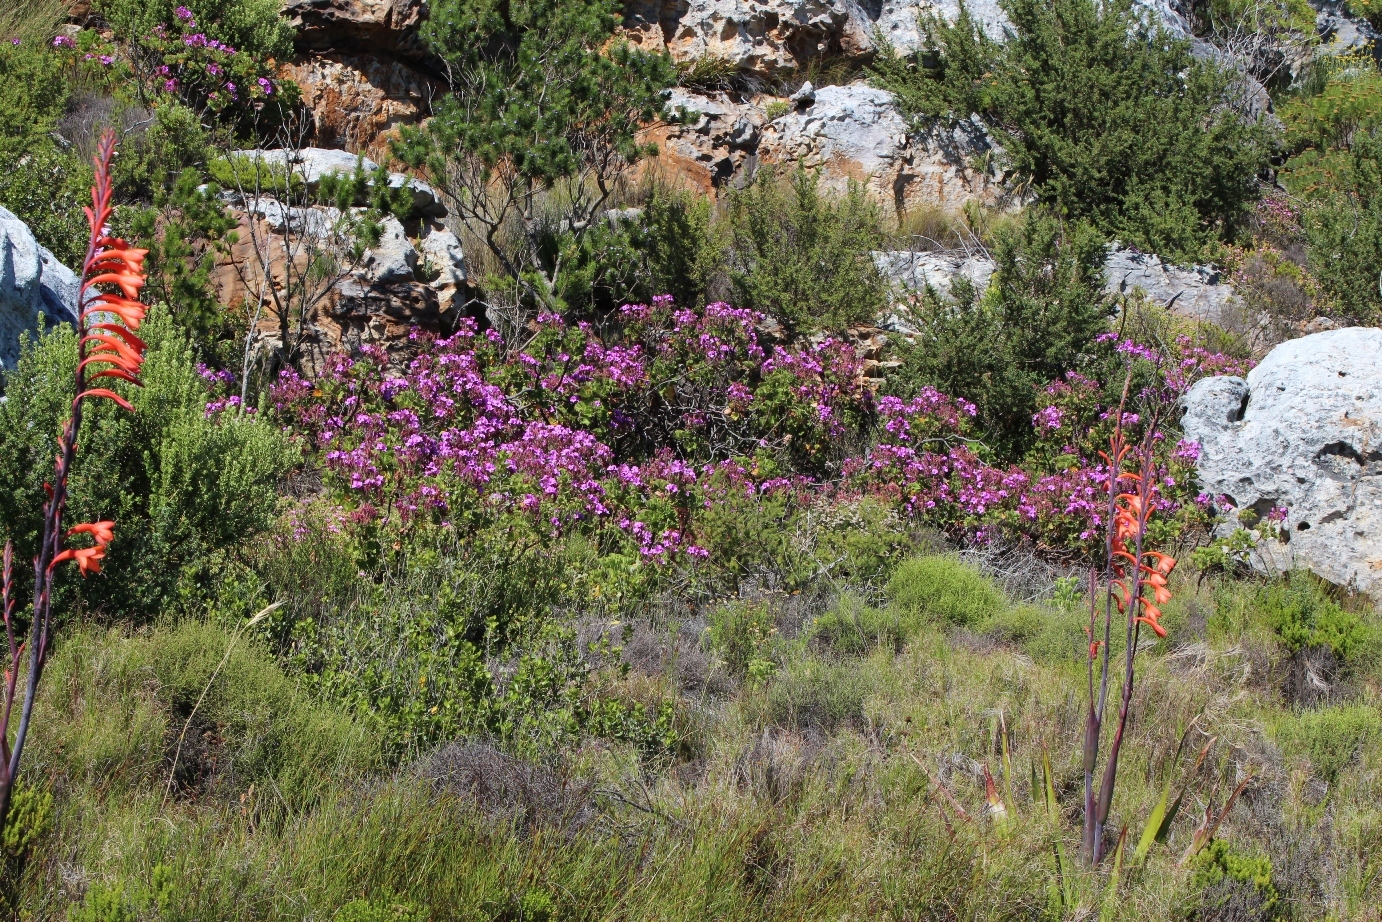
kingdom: Plantae
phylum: Tracheophyta
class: Magnoliopsida
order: Geraniales
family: Geraniaceae
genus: Pelargonium
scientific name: Pelargonium cucullatum
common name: Tree pelargonium
